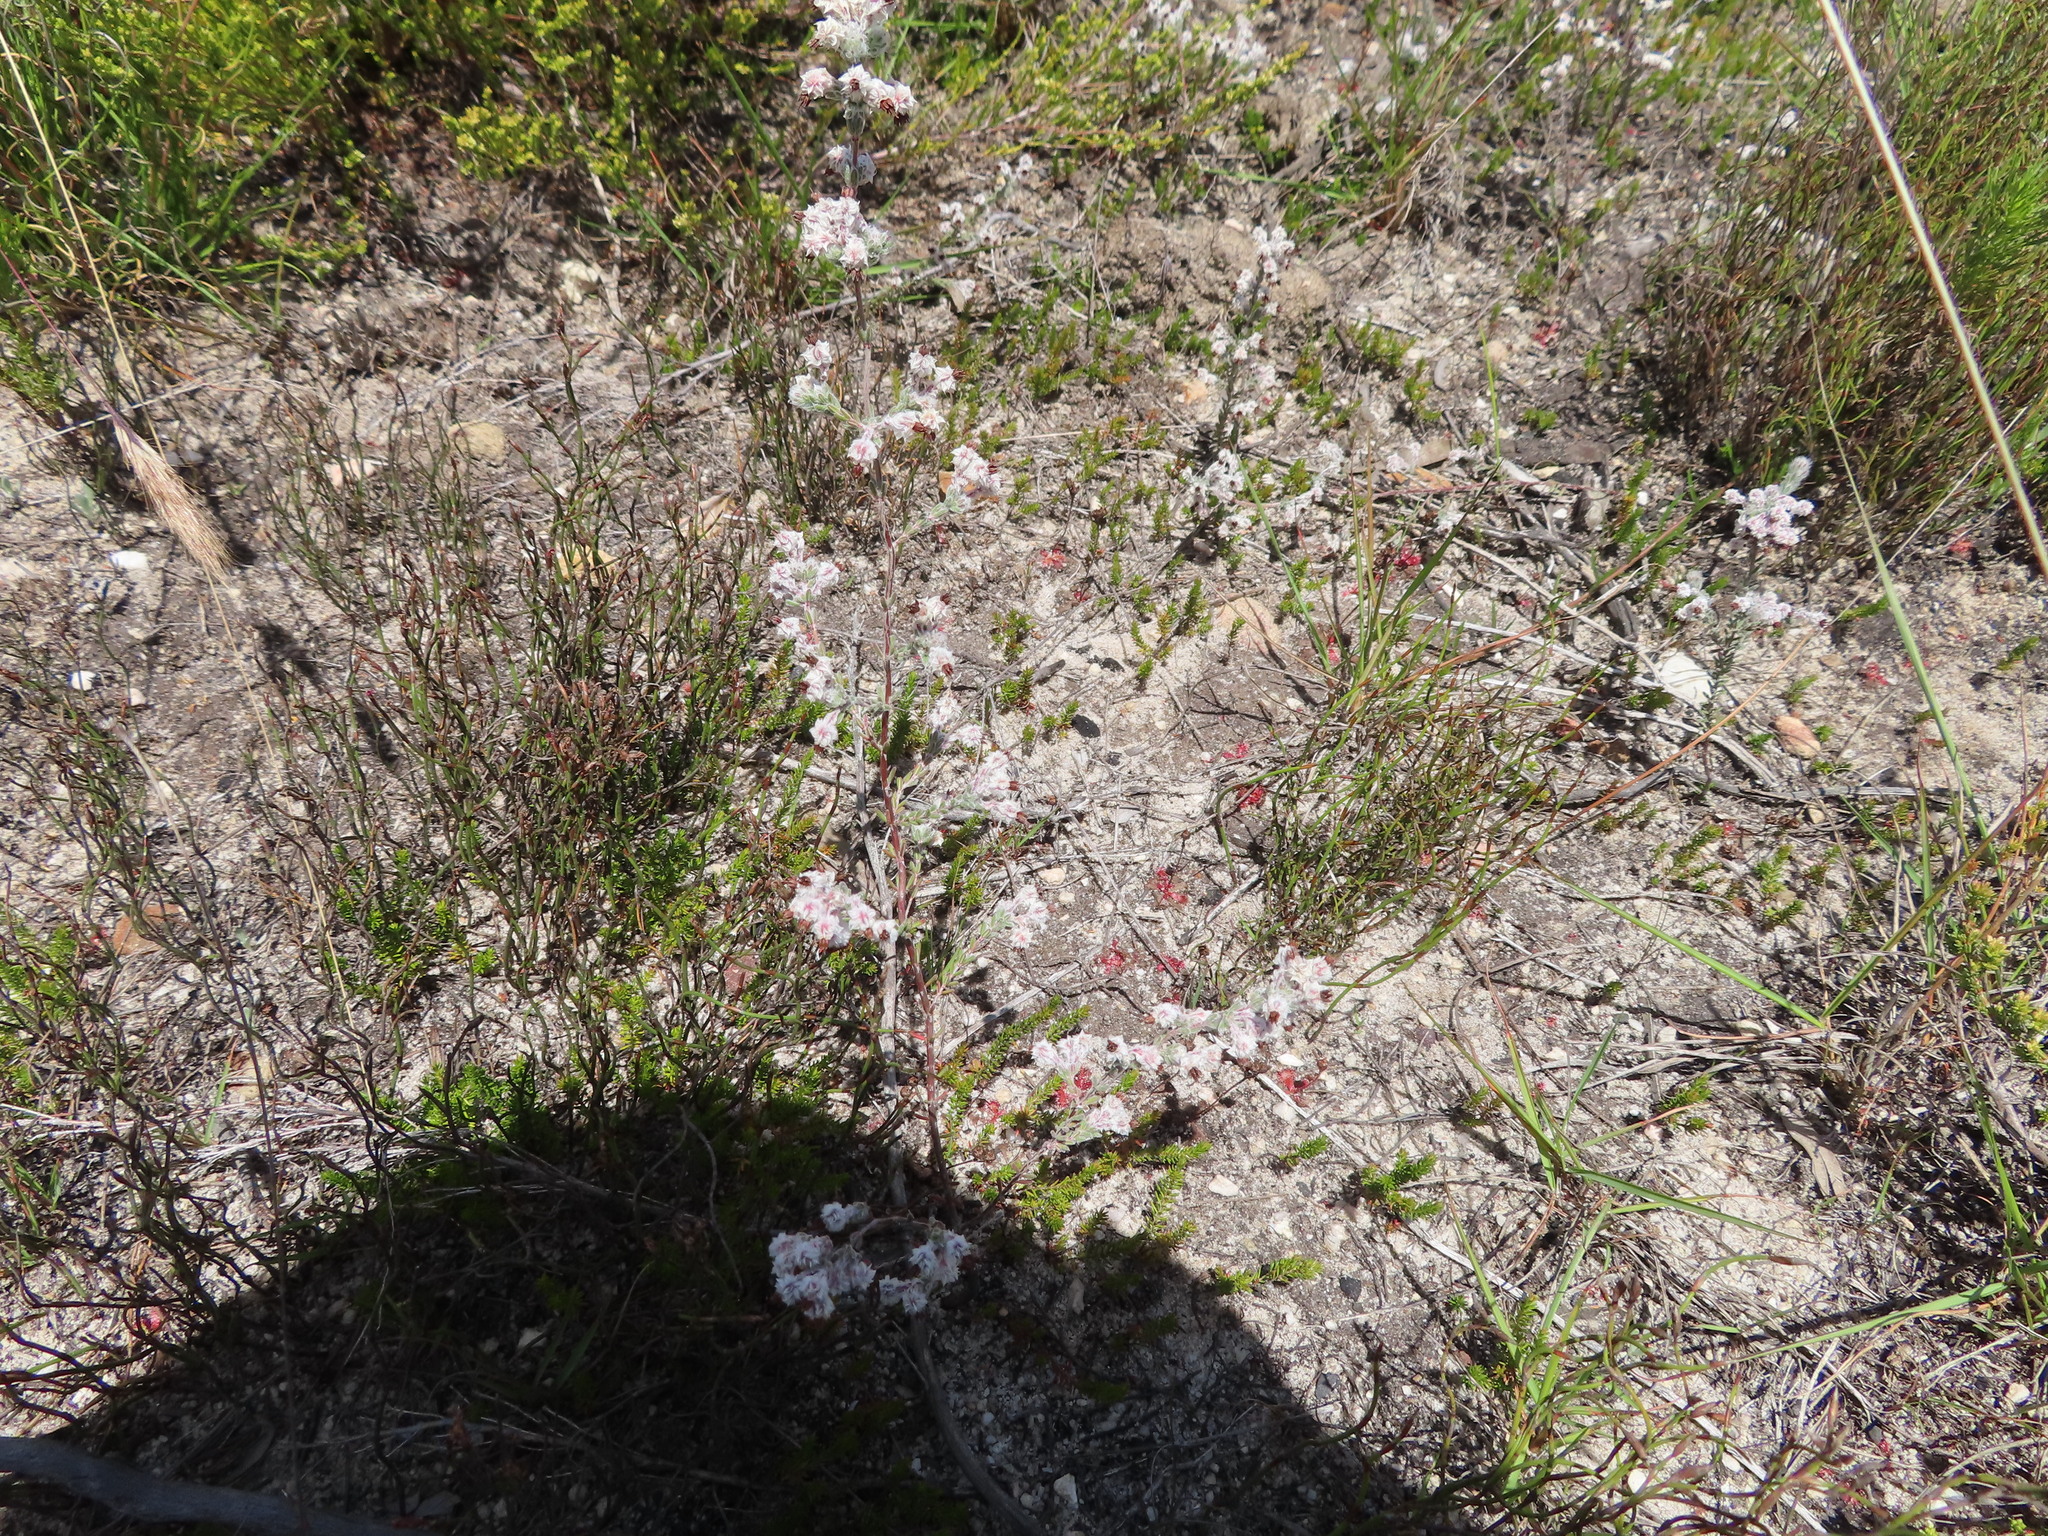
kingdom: Plantae
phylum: Tracheophyta
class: Magnoliopsida
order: Ericales
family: Ericaceae
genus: Erica
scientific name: Erica bruniades
